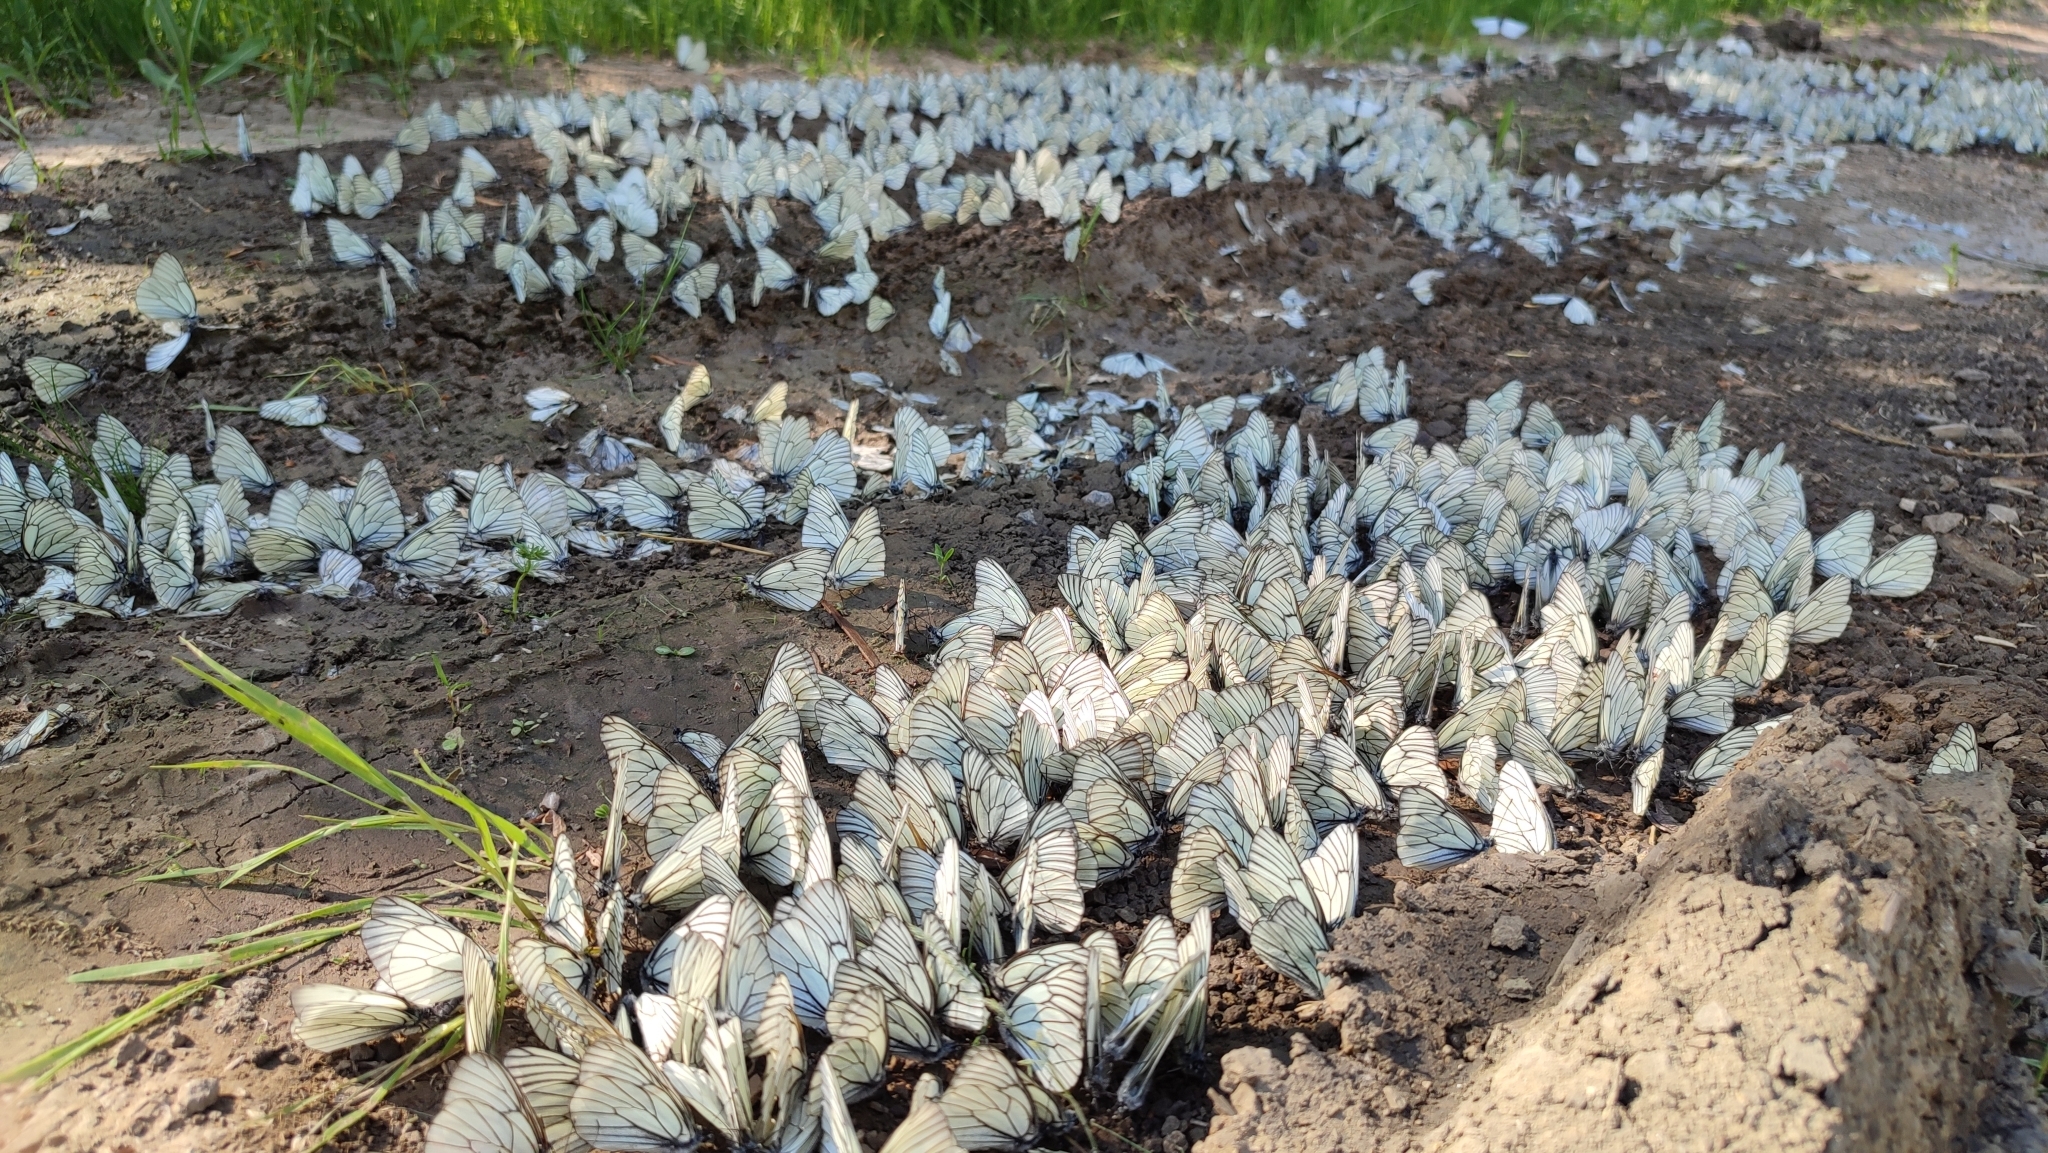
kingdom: Animalia
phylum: Arthropoda
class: Insecta
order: Lepidoptera
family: Pieridae
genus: Aporia
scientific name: Aporia crataegi
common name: Black-veined white
